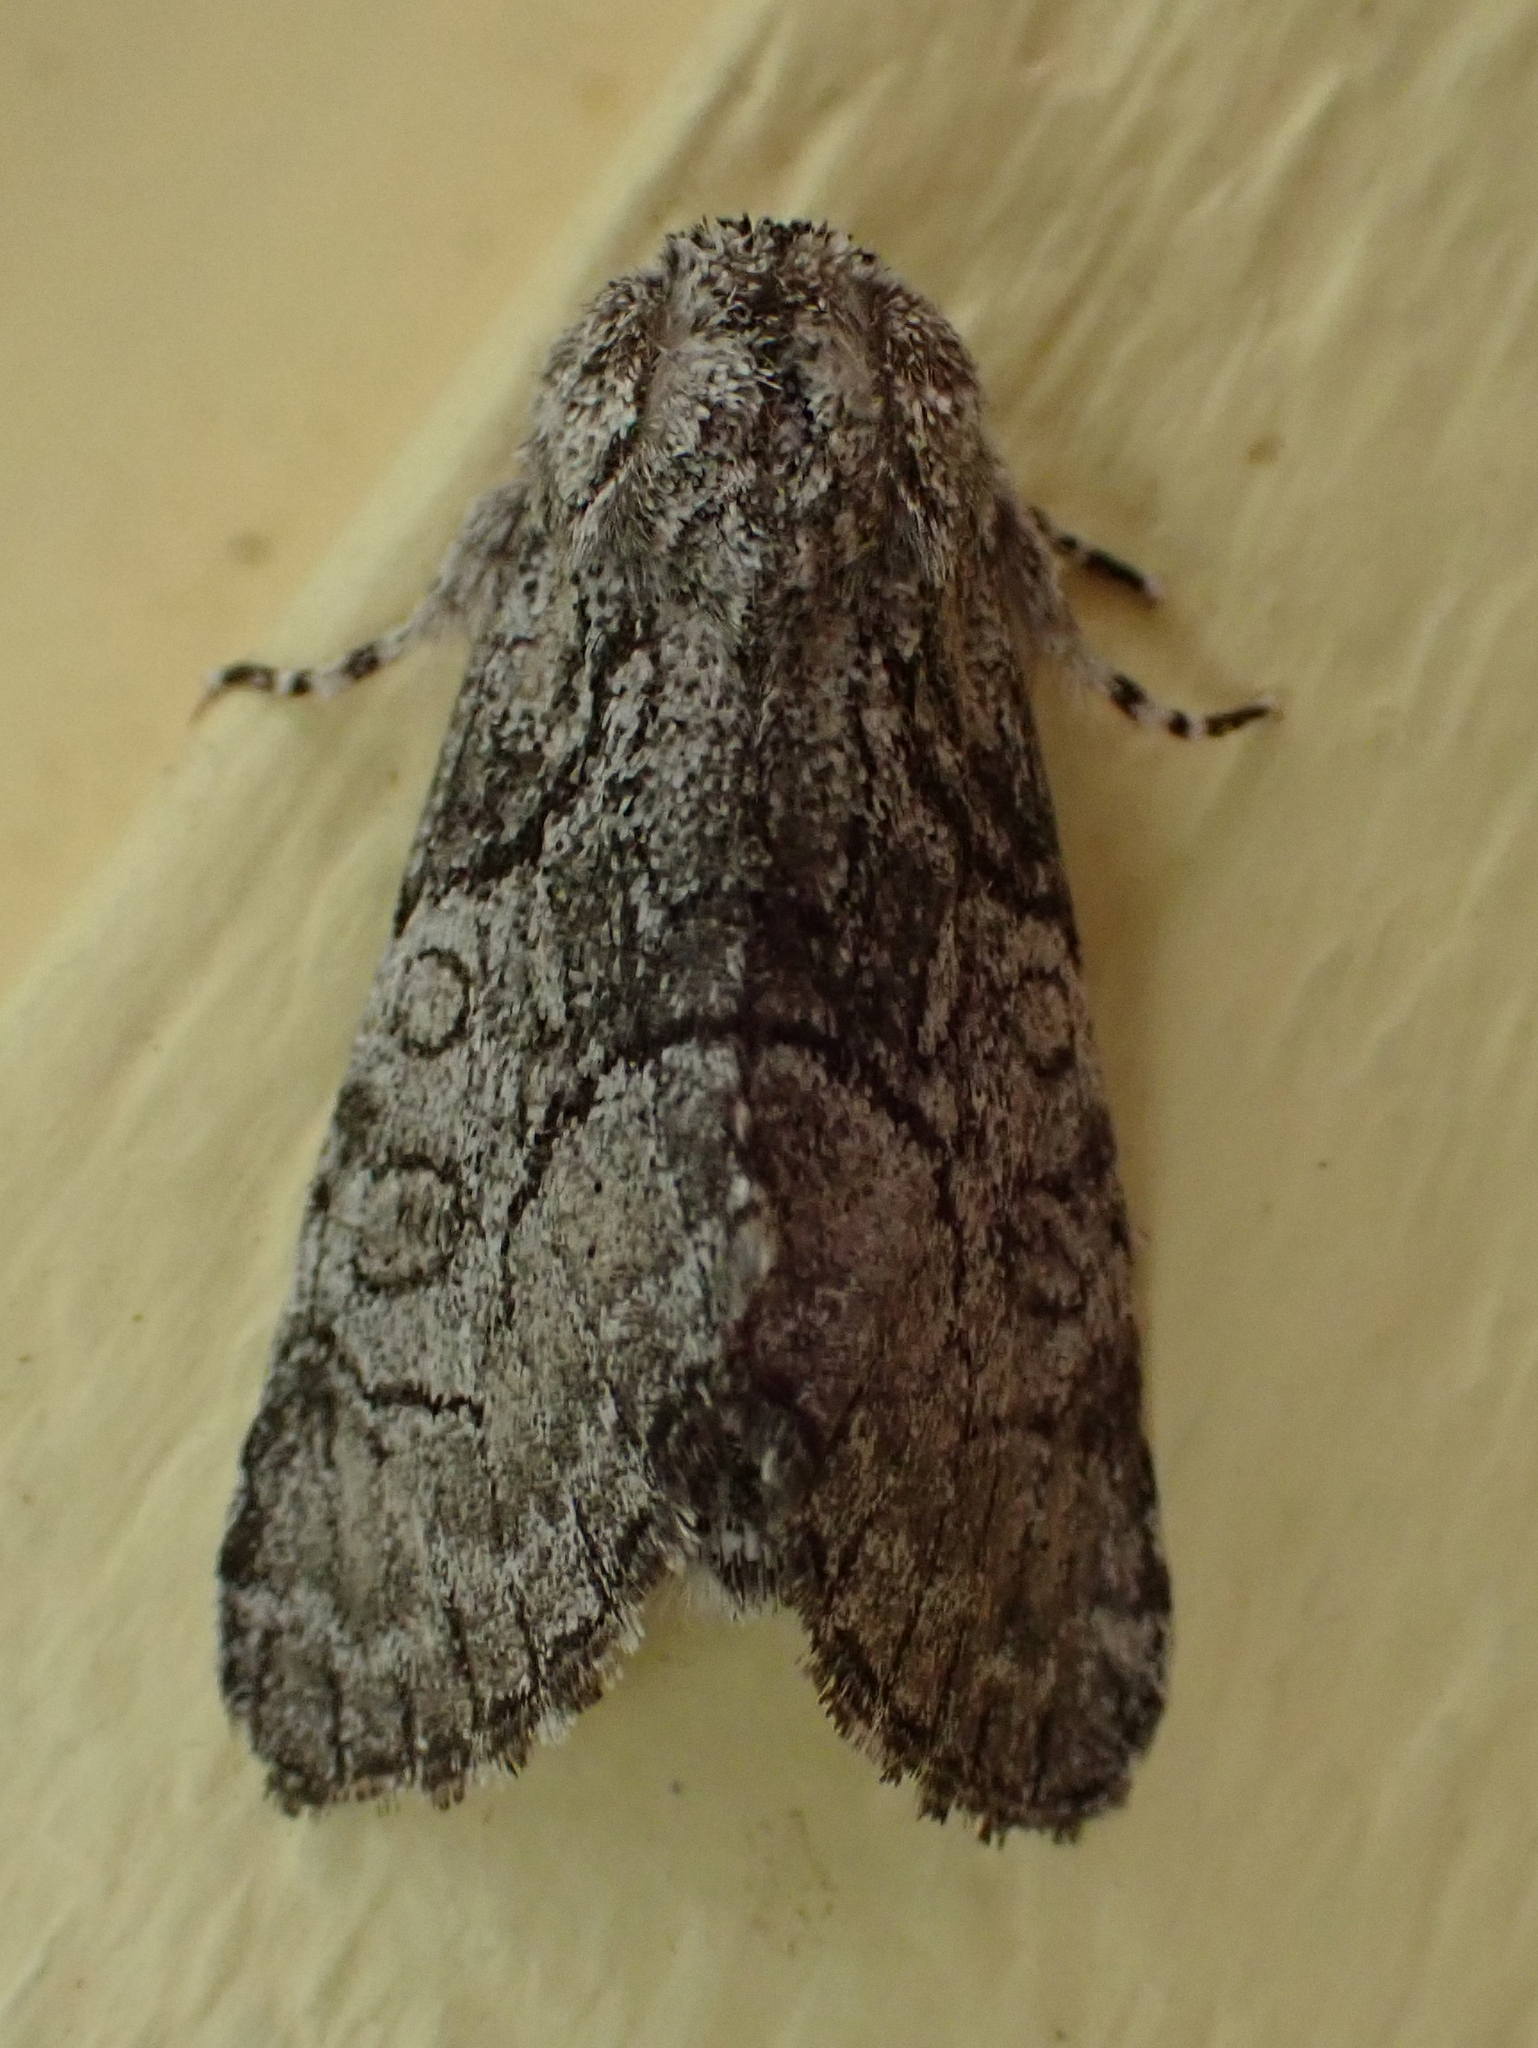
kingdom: Animalia
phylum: Arthropoda
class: Insecta
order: Lepidoptera
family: Noctuidae
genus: Raphia
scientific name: Raphia frater
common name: Brother
